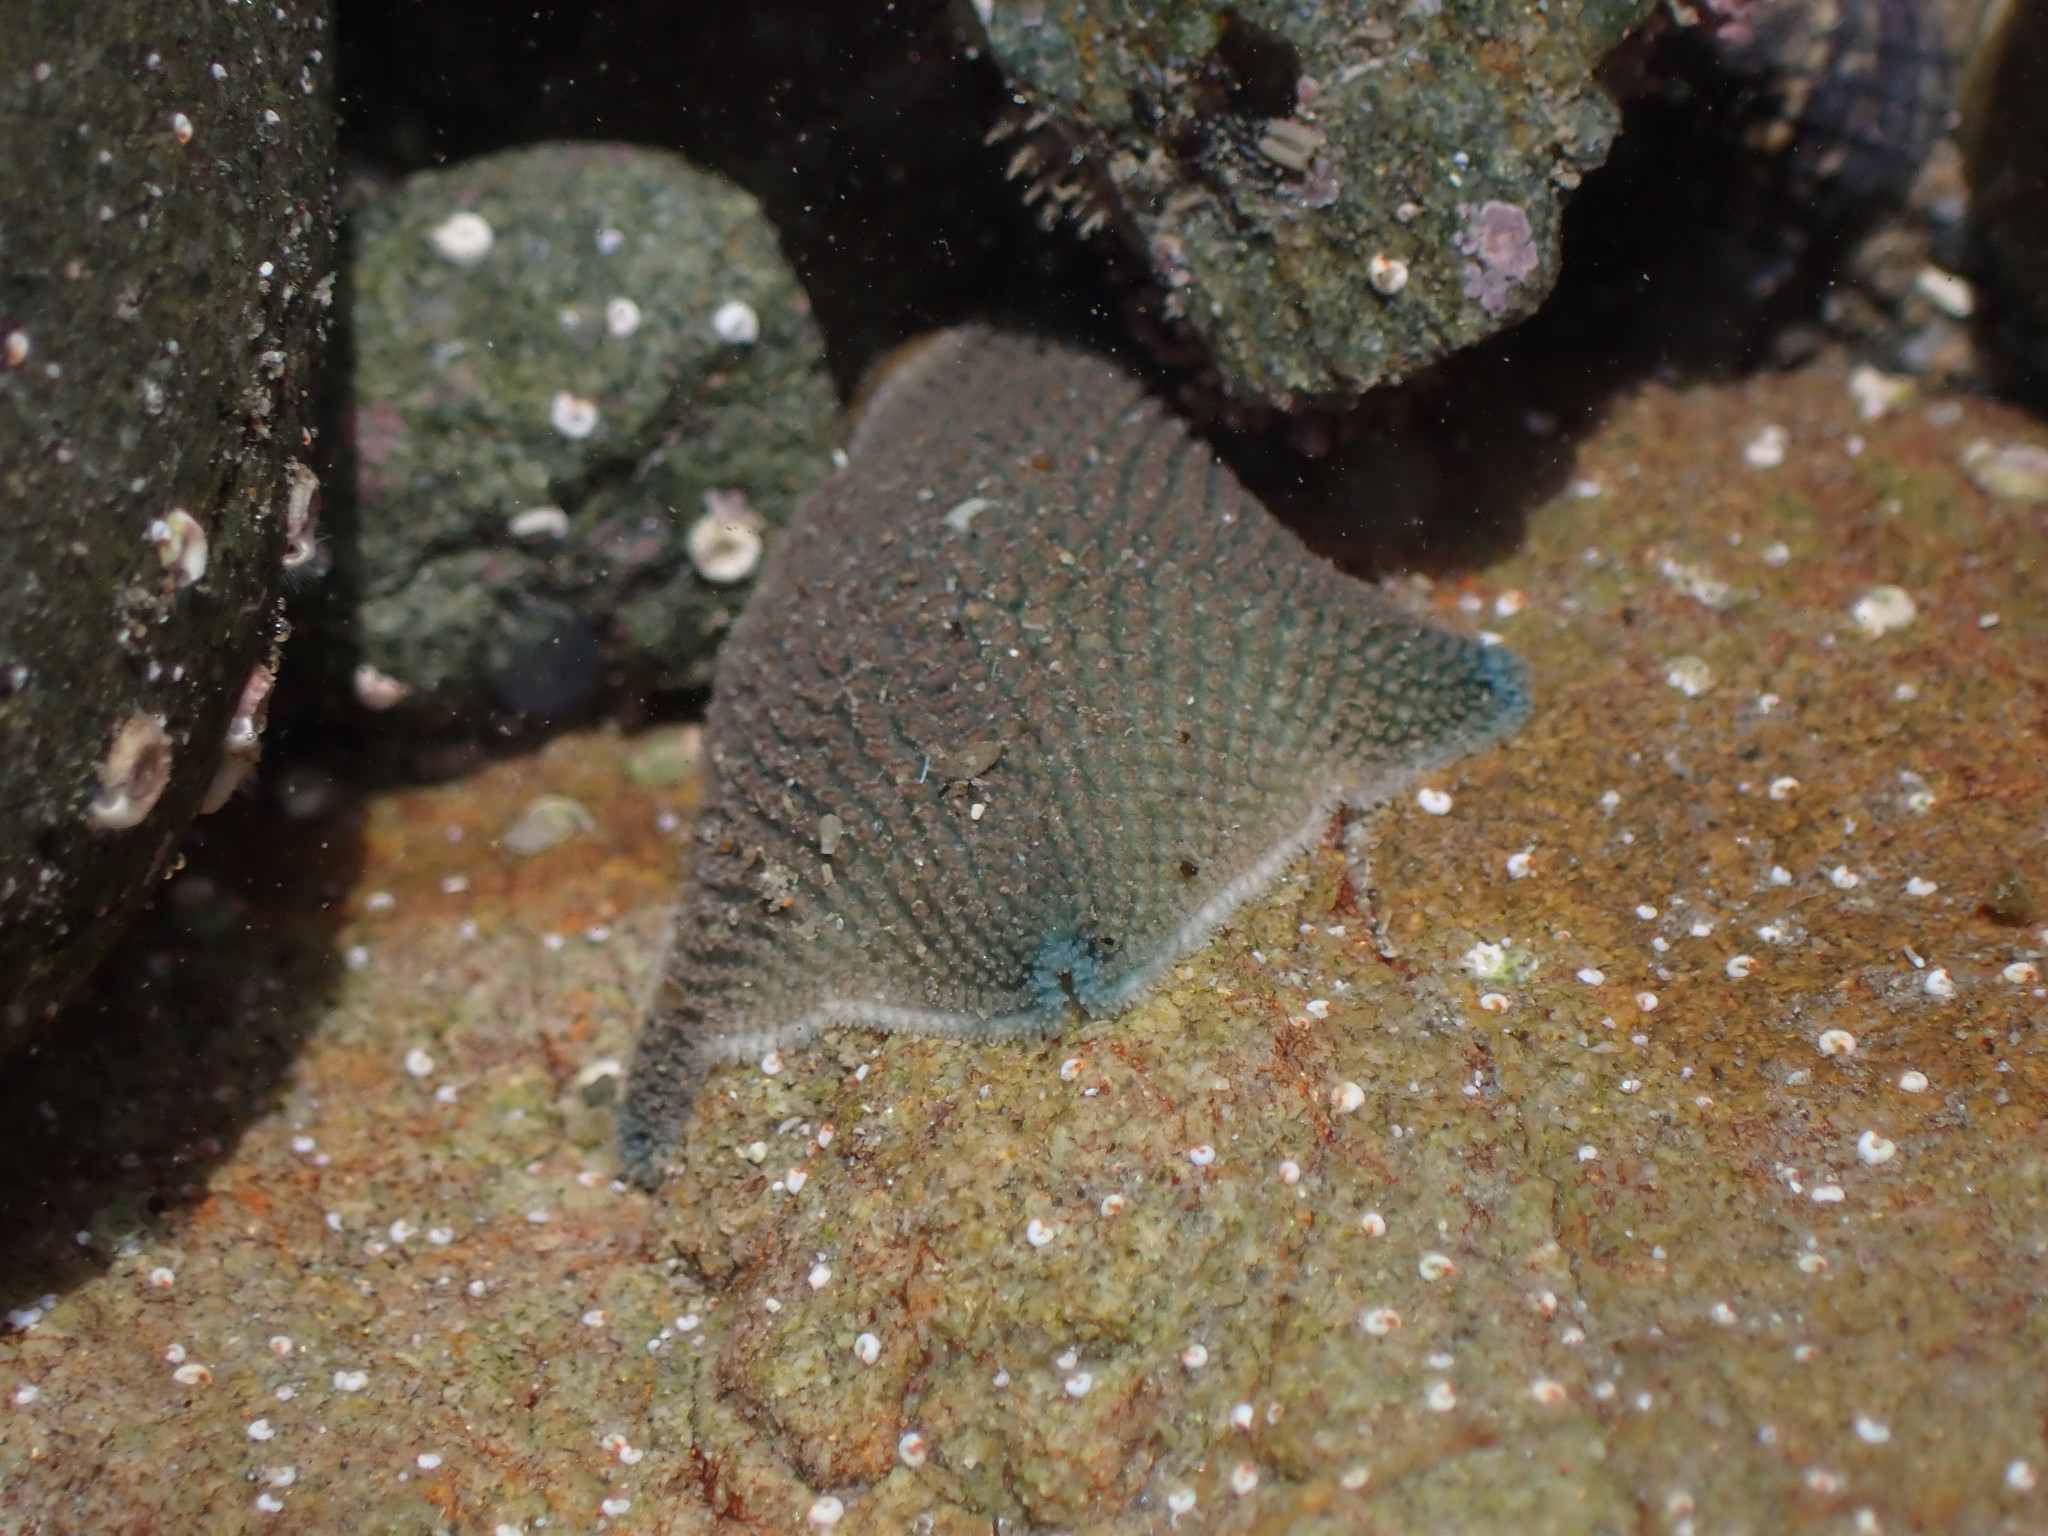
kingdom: Animalia
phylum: Echinodermata
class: Asteroidea
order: Valvatida
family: Asterinidae
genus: Patiriella
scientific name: Patiriella regularis
